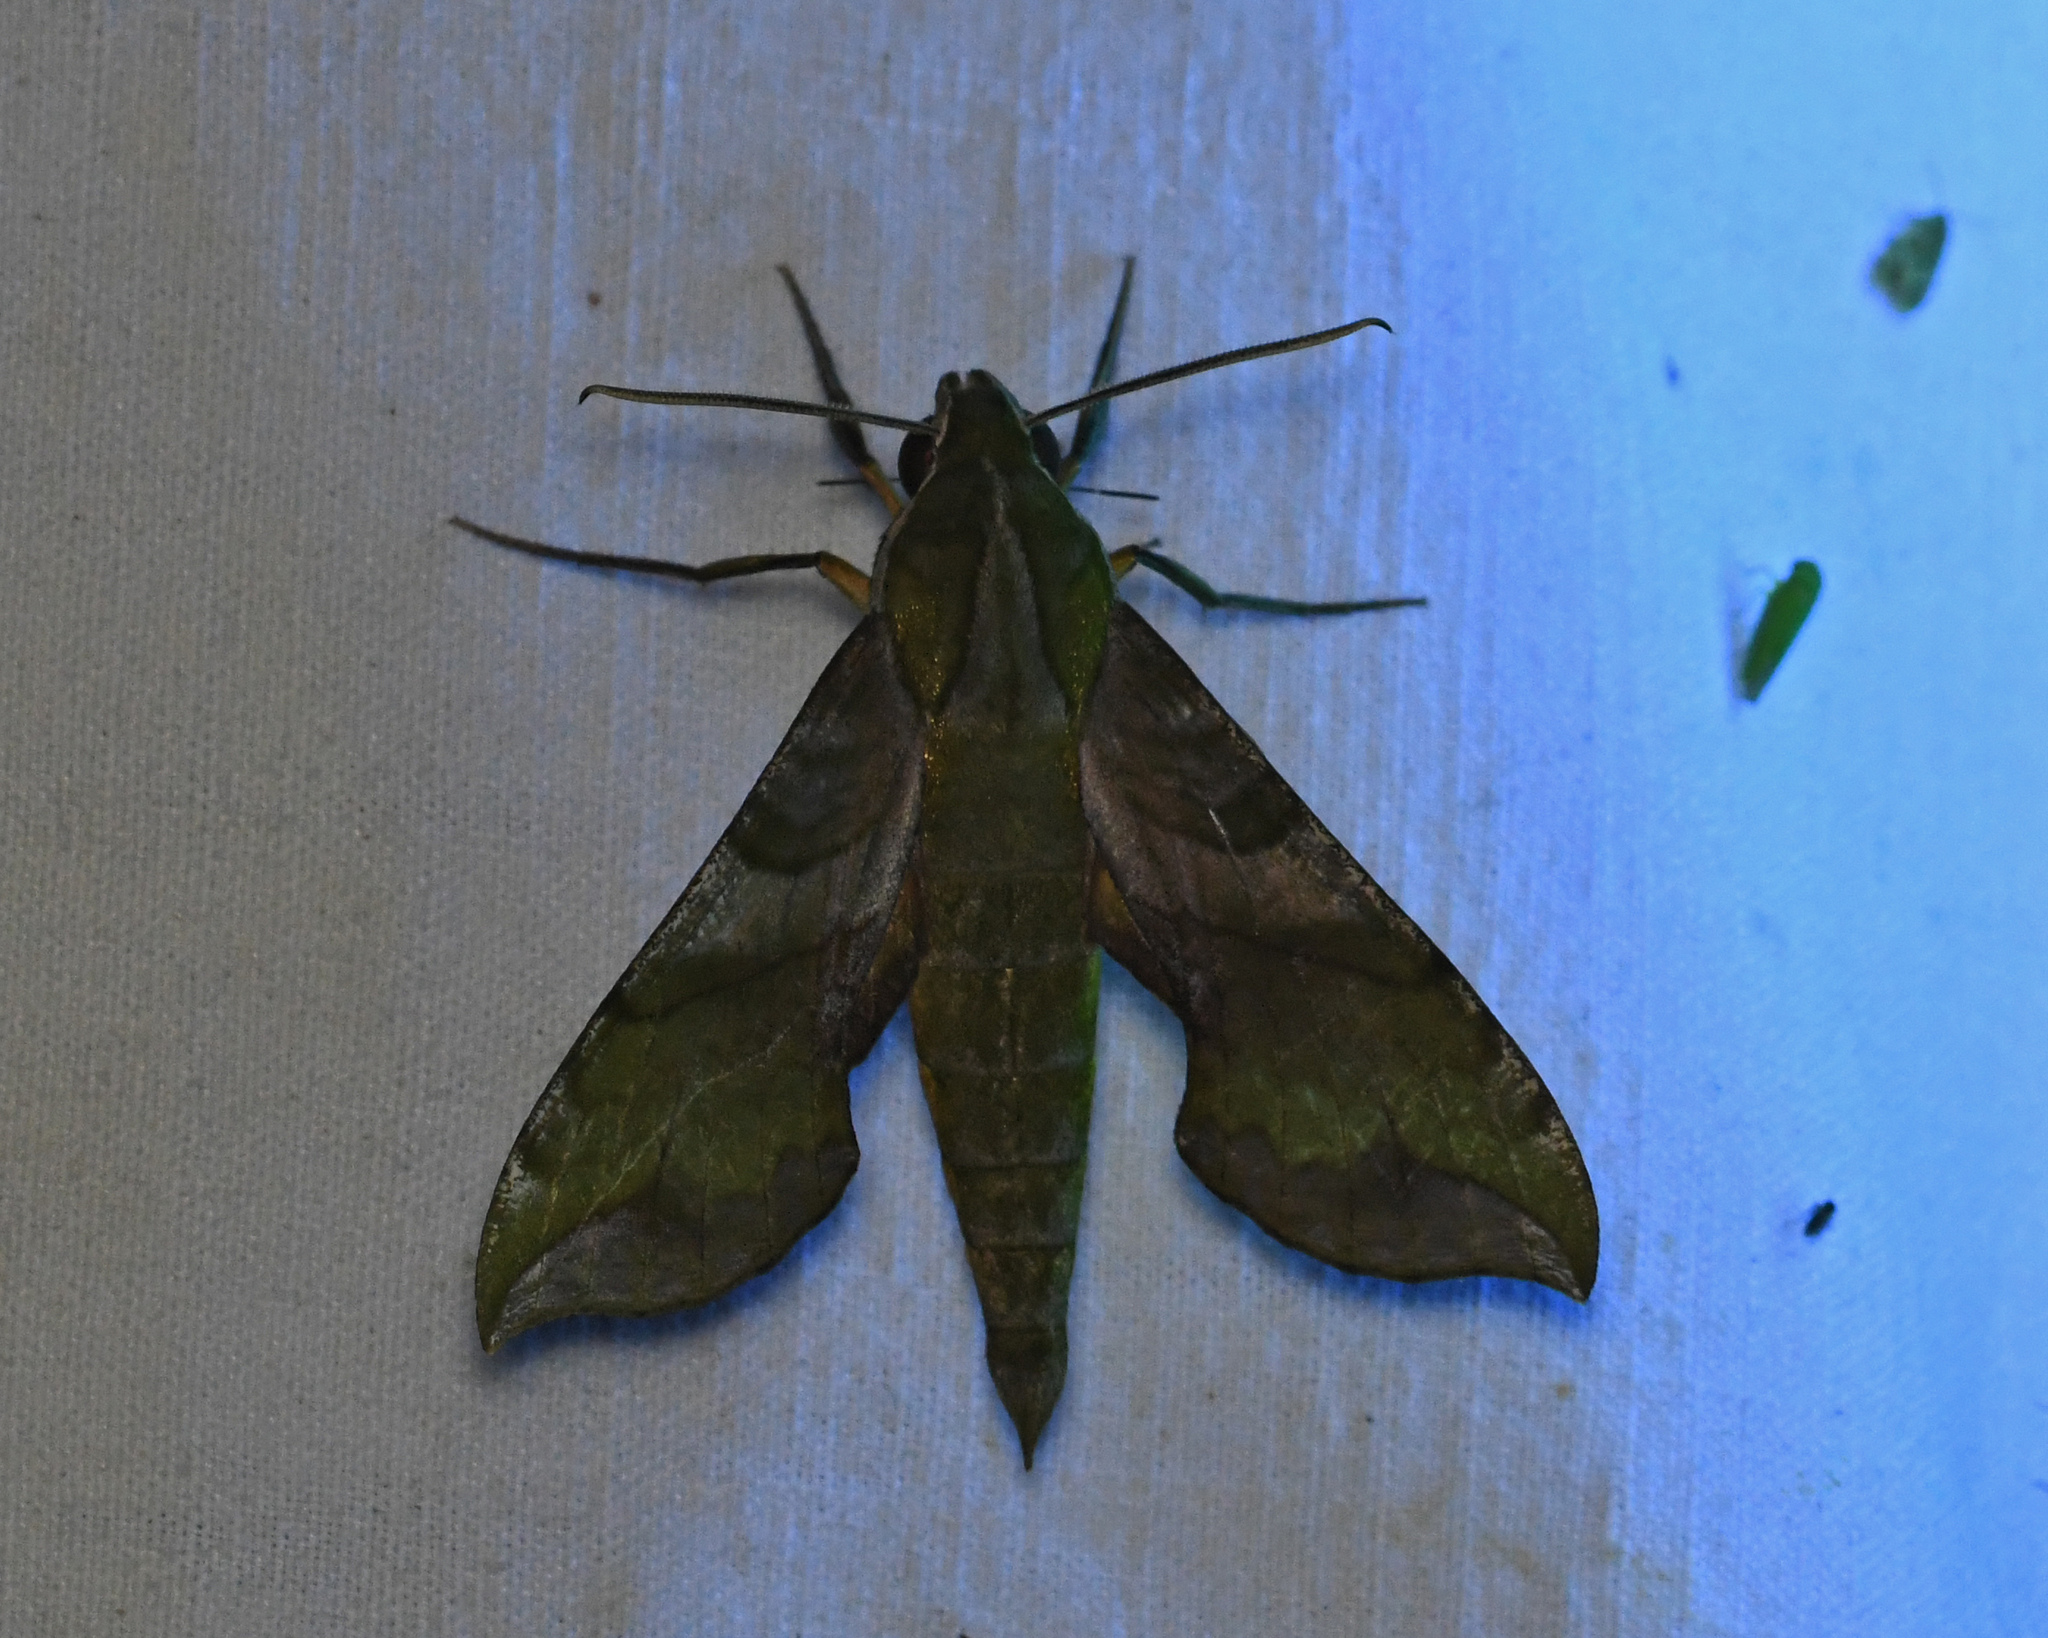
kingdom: Animalia
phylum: Arthropoda
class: Insecta
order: Lepidoptera
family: Sphingidae
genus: Xylophanes
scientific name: Xylophanes pluto
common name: Pluto sphinx
